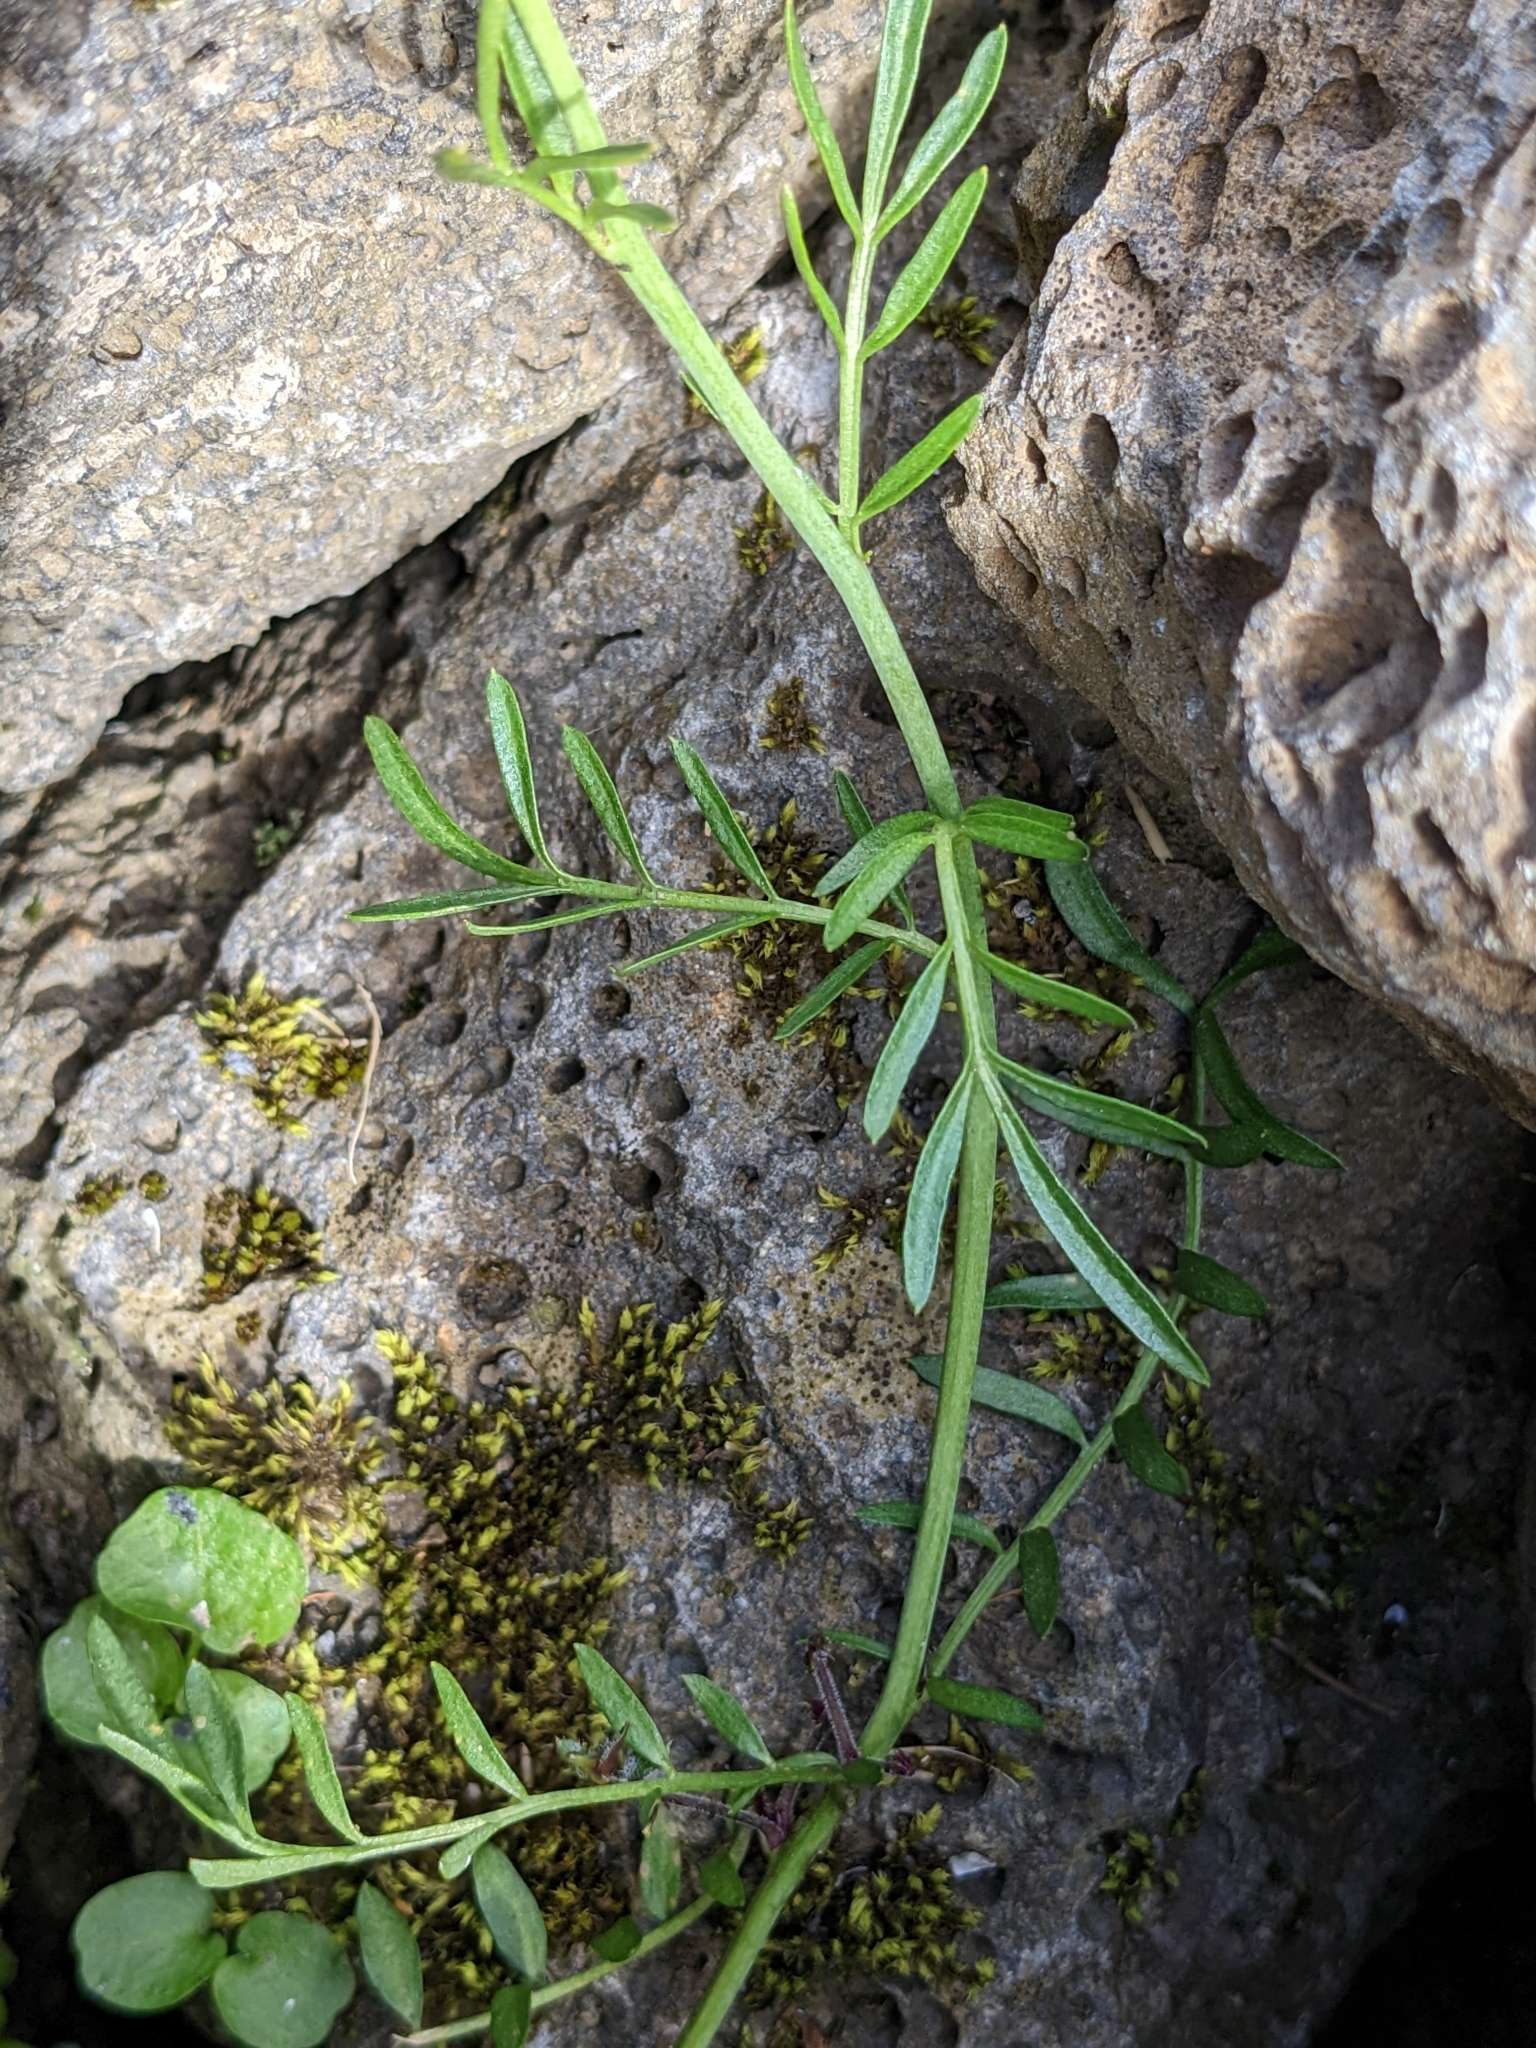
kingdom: Plantae
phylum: Tracheophyta
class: Magnoliopsida
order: Brassicales
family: Brassicaceae
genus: Cardamine
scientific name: Cardamine pratensis
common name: Cuckoo flower
